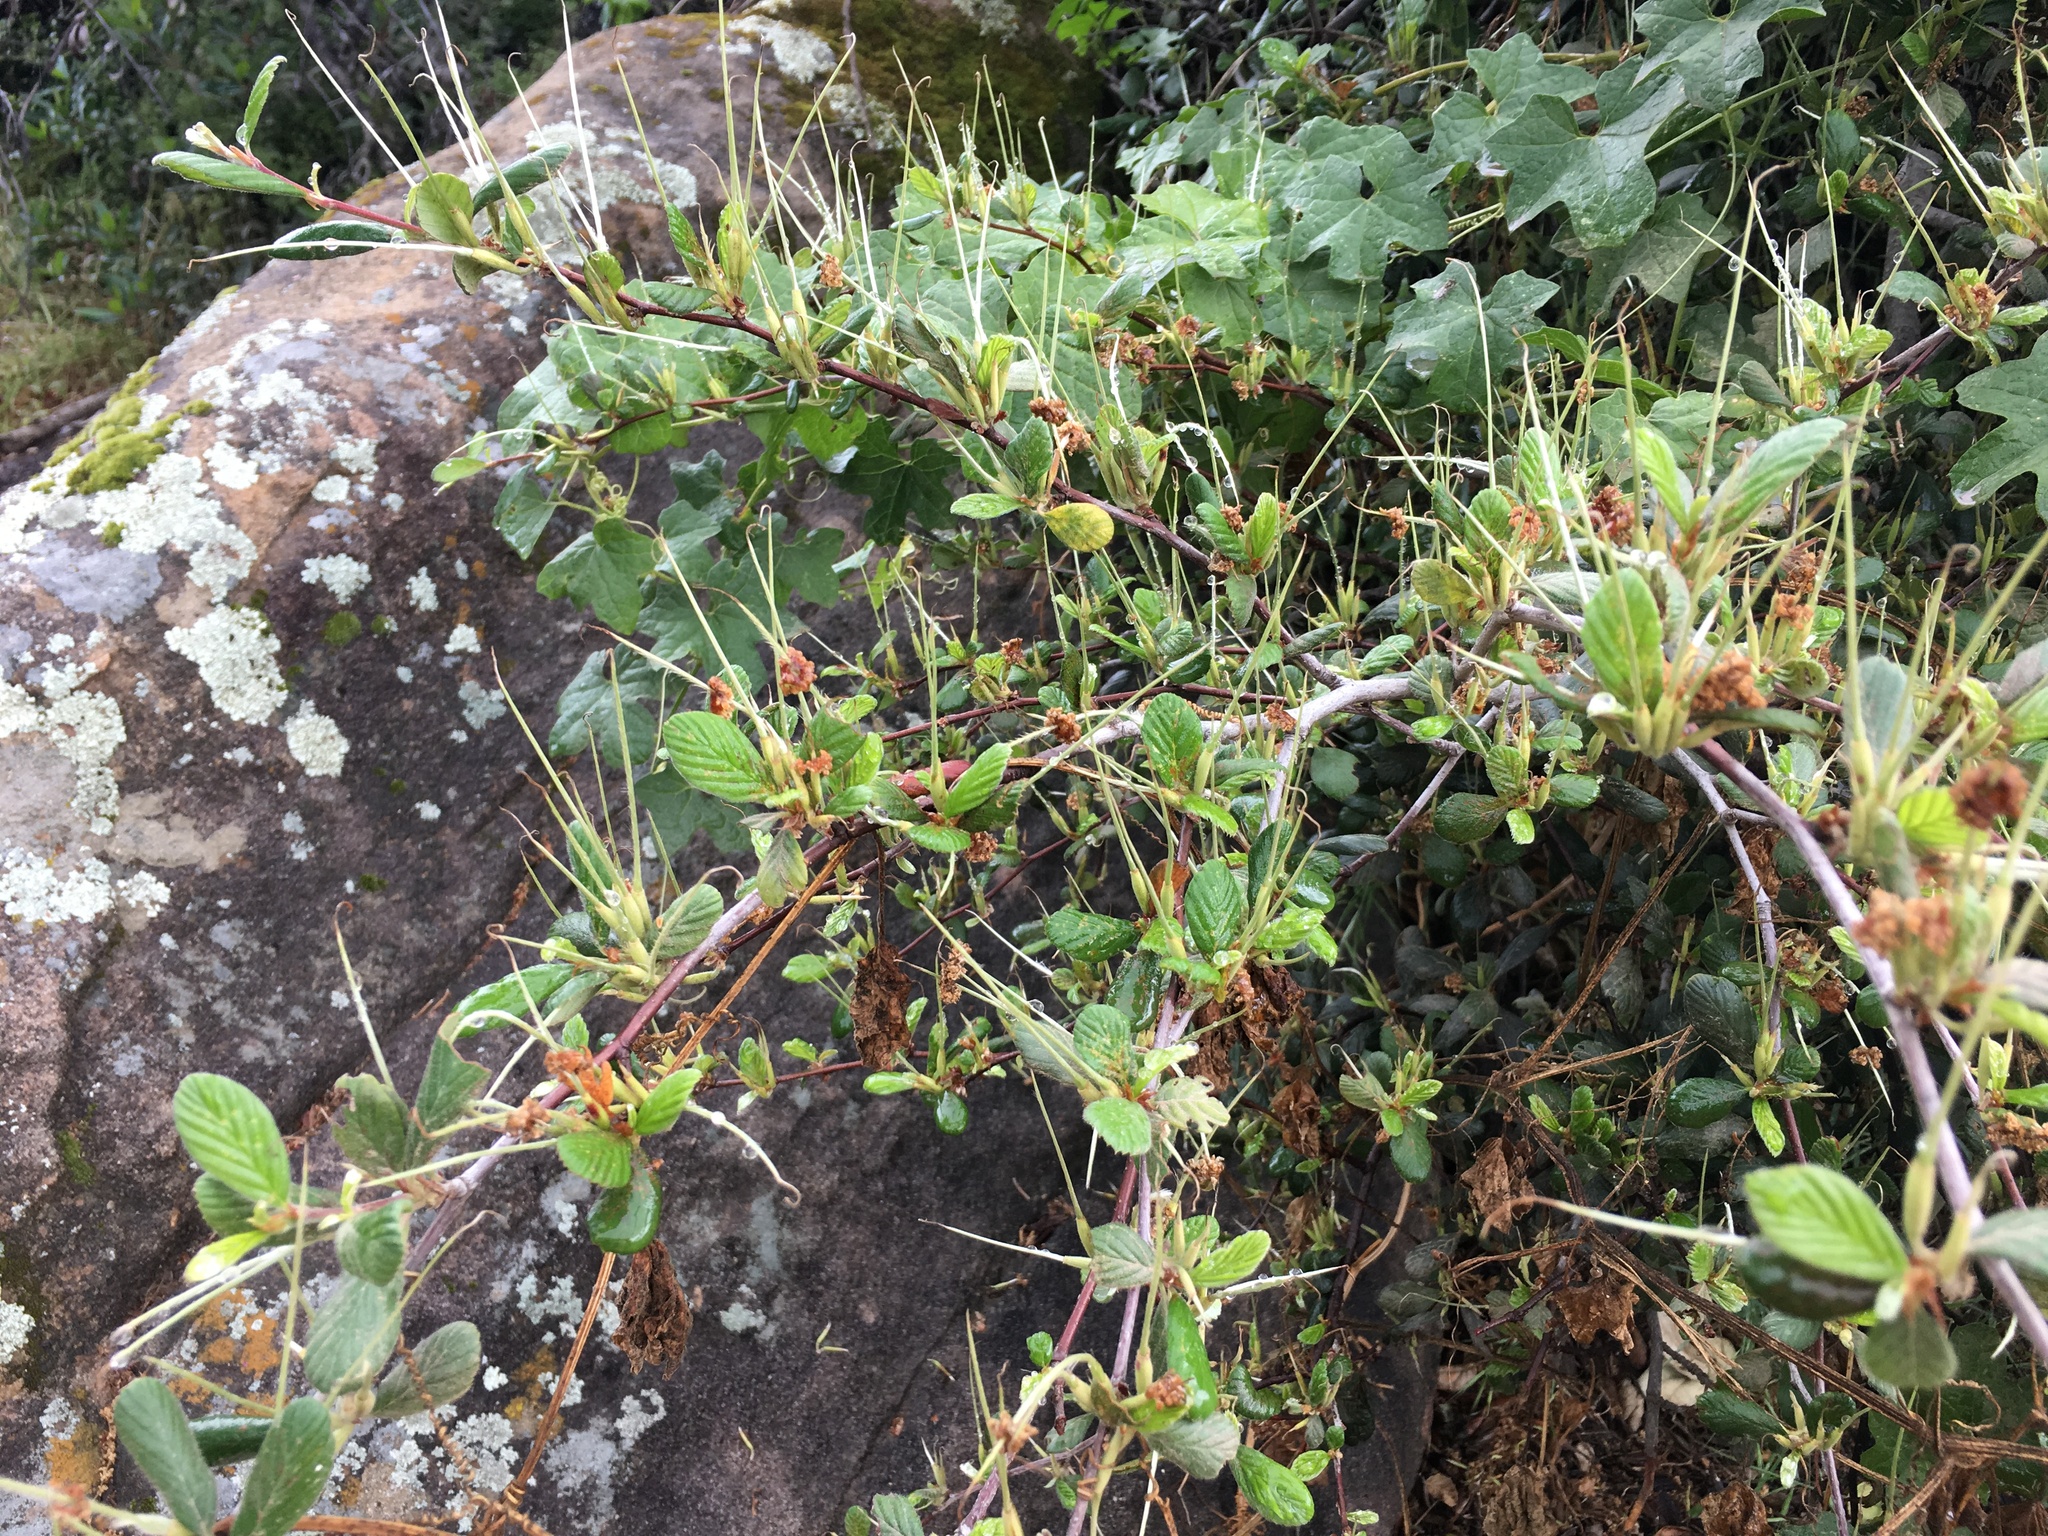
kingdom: Plantae
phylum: Tracheophyta
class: Magnoliopsida
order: Rosales
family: Rosaceae
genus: Cercocarpus
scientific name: Cercocarpus betuloides
